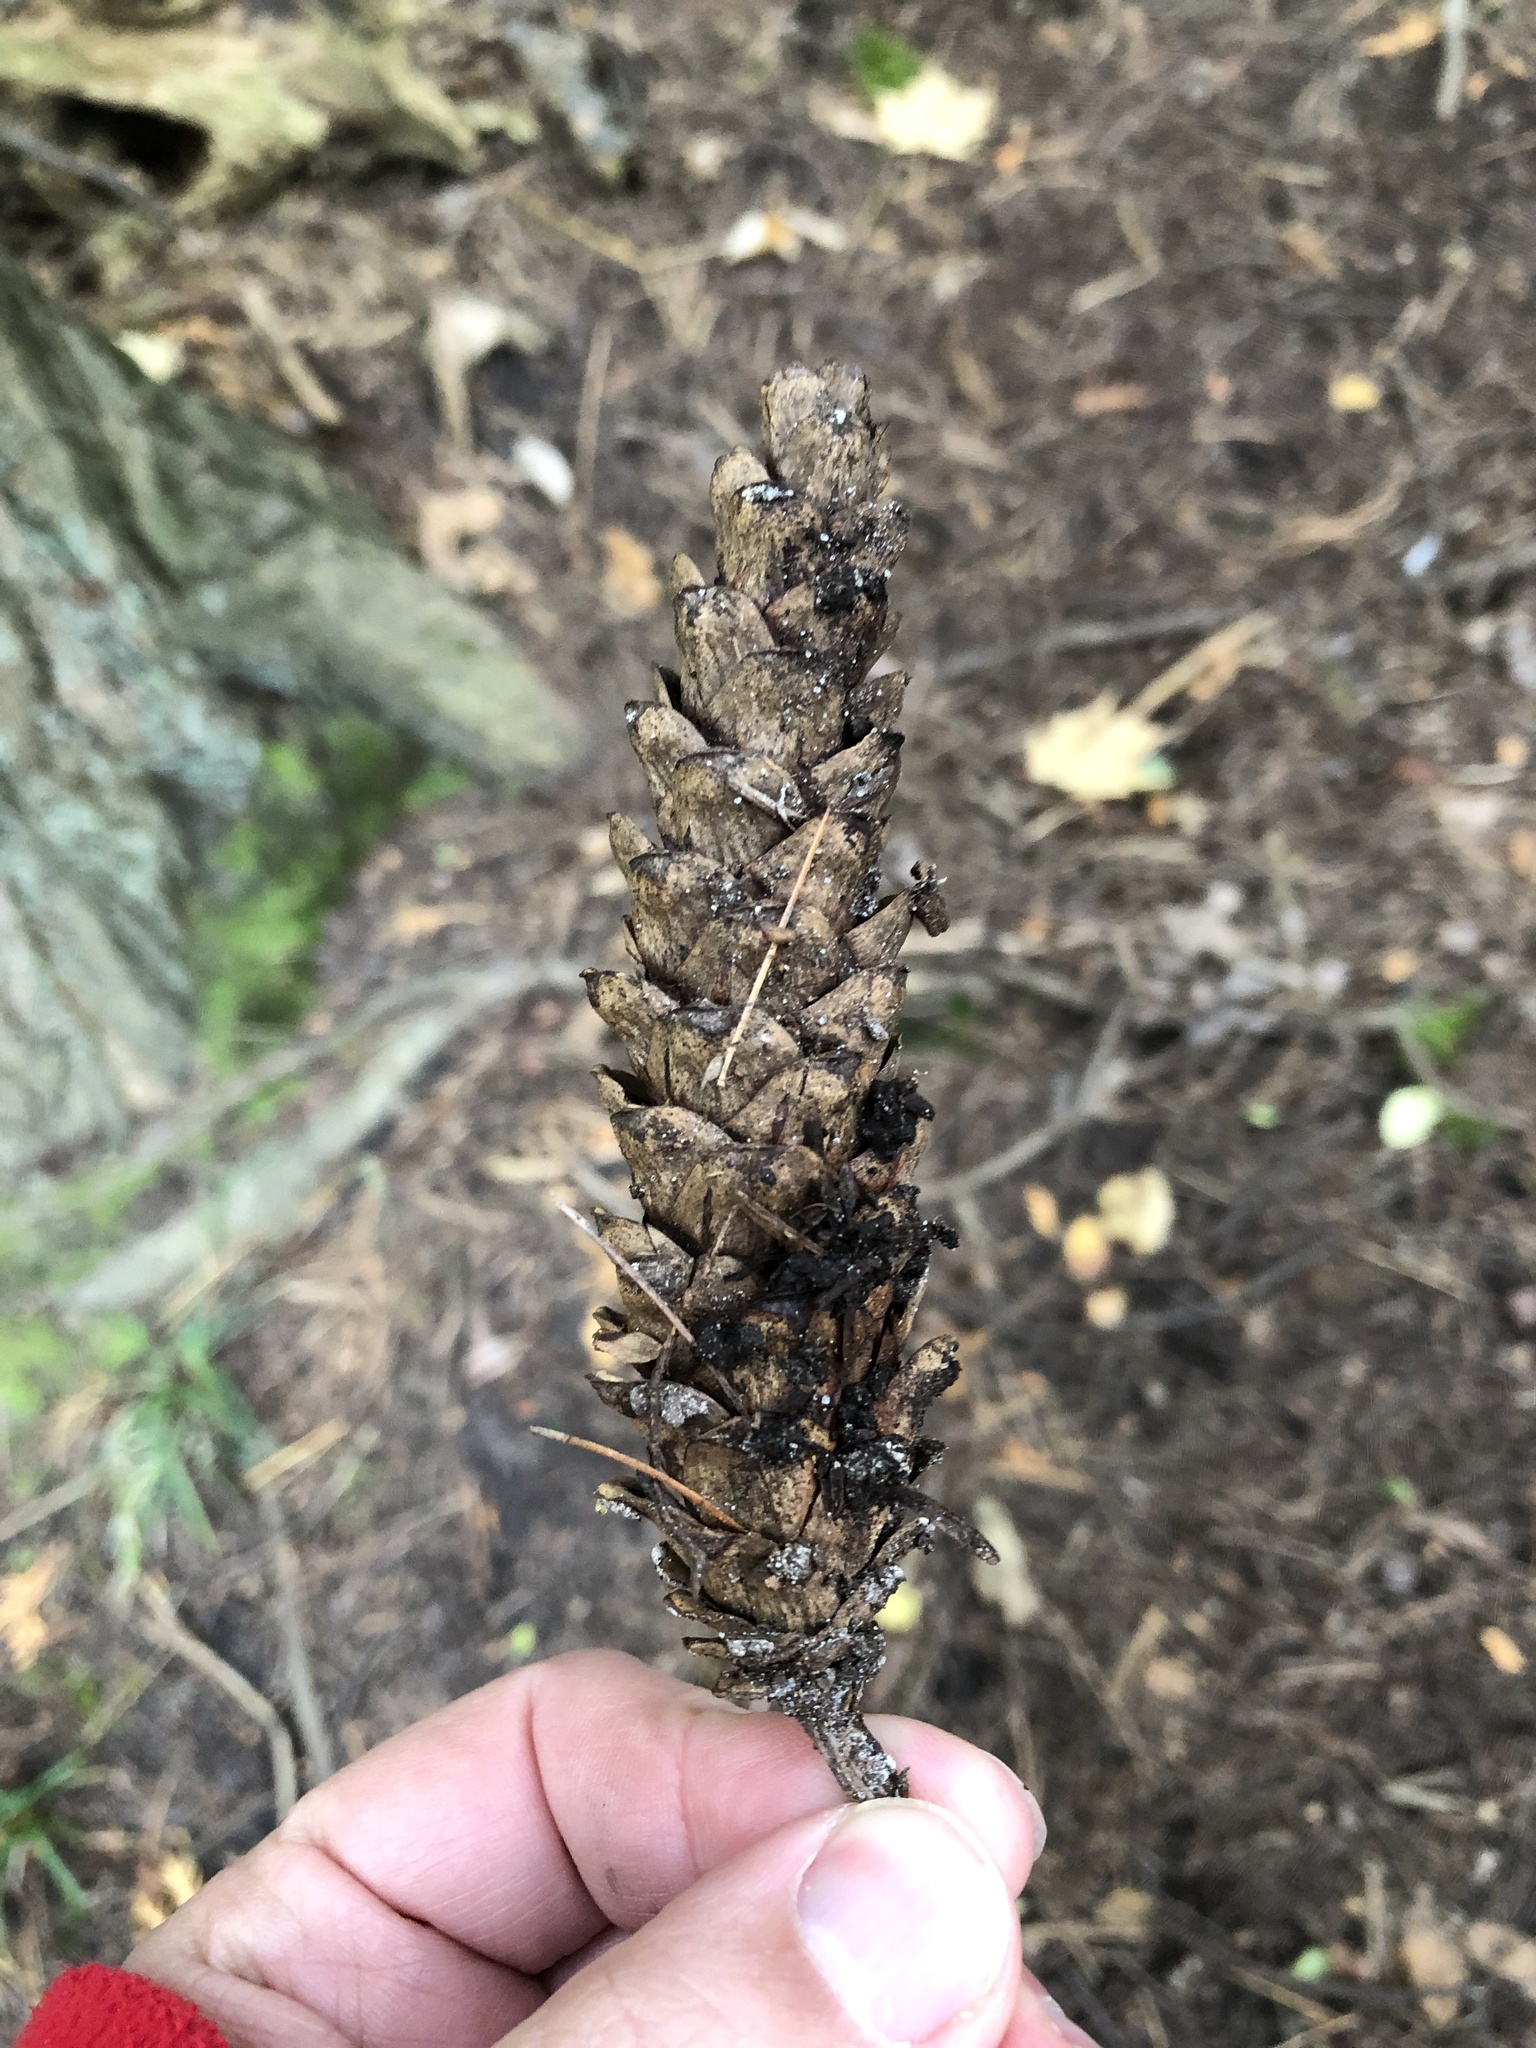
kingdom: Plantae
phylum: Tracheophyta
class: Pinopsida
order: Pinales
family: Pinaceae
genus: Pinus
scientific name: Pinus strobus
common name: Weymouth pine
